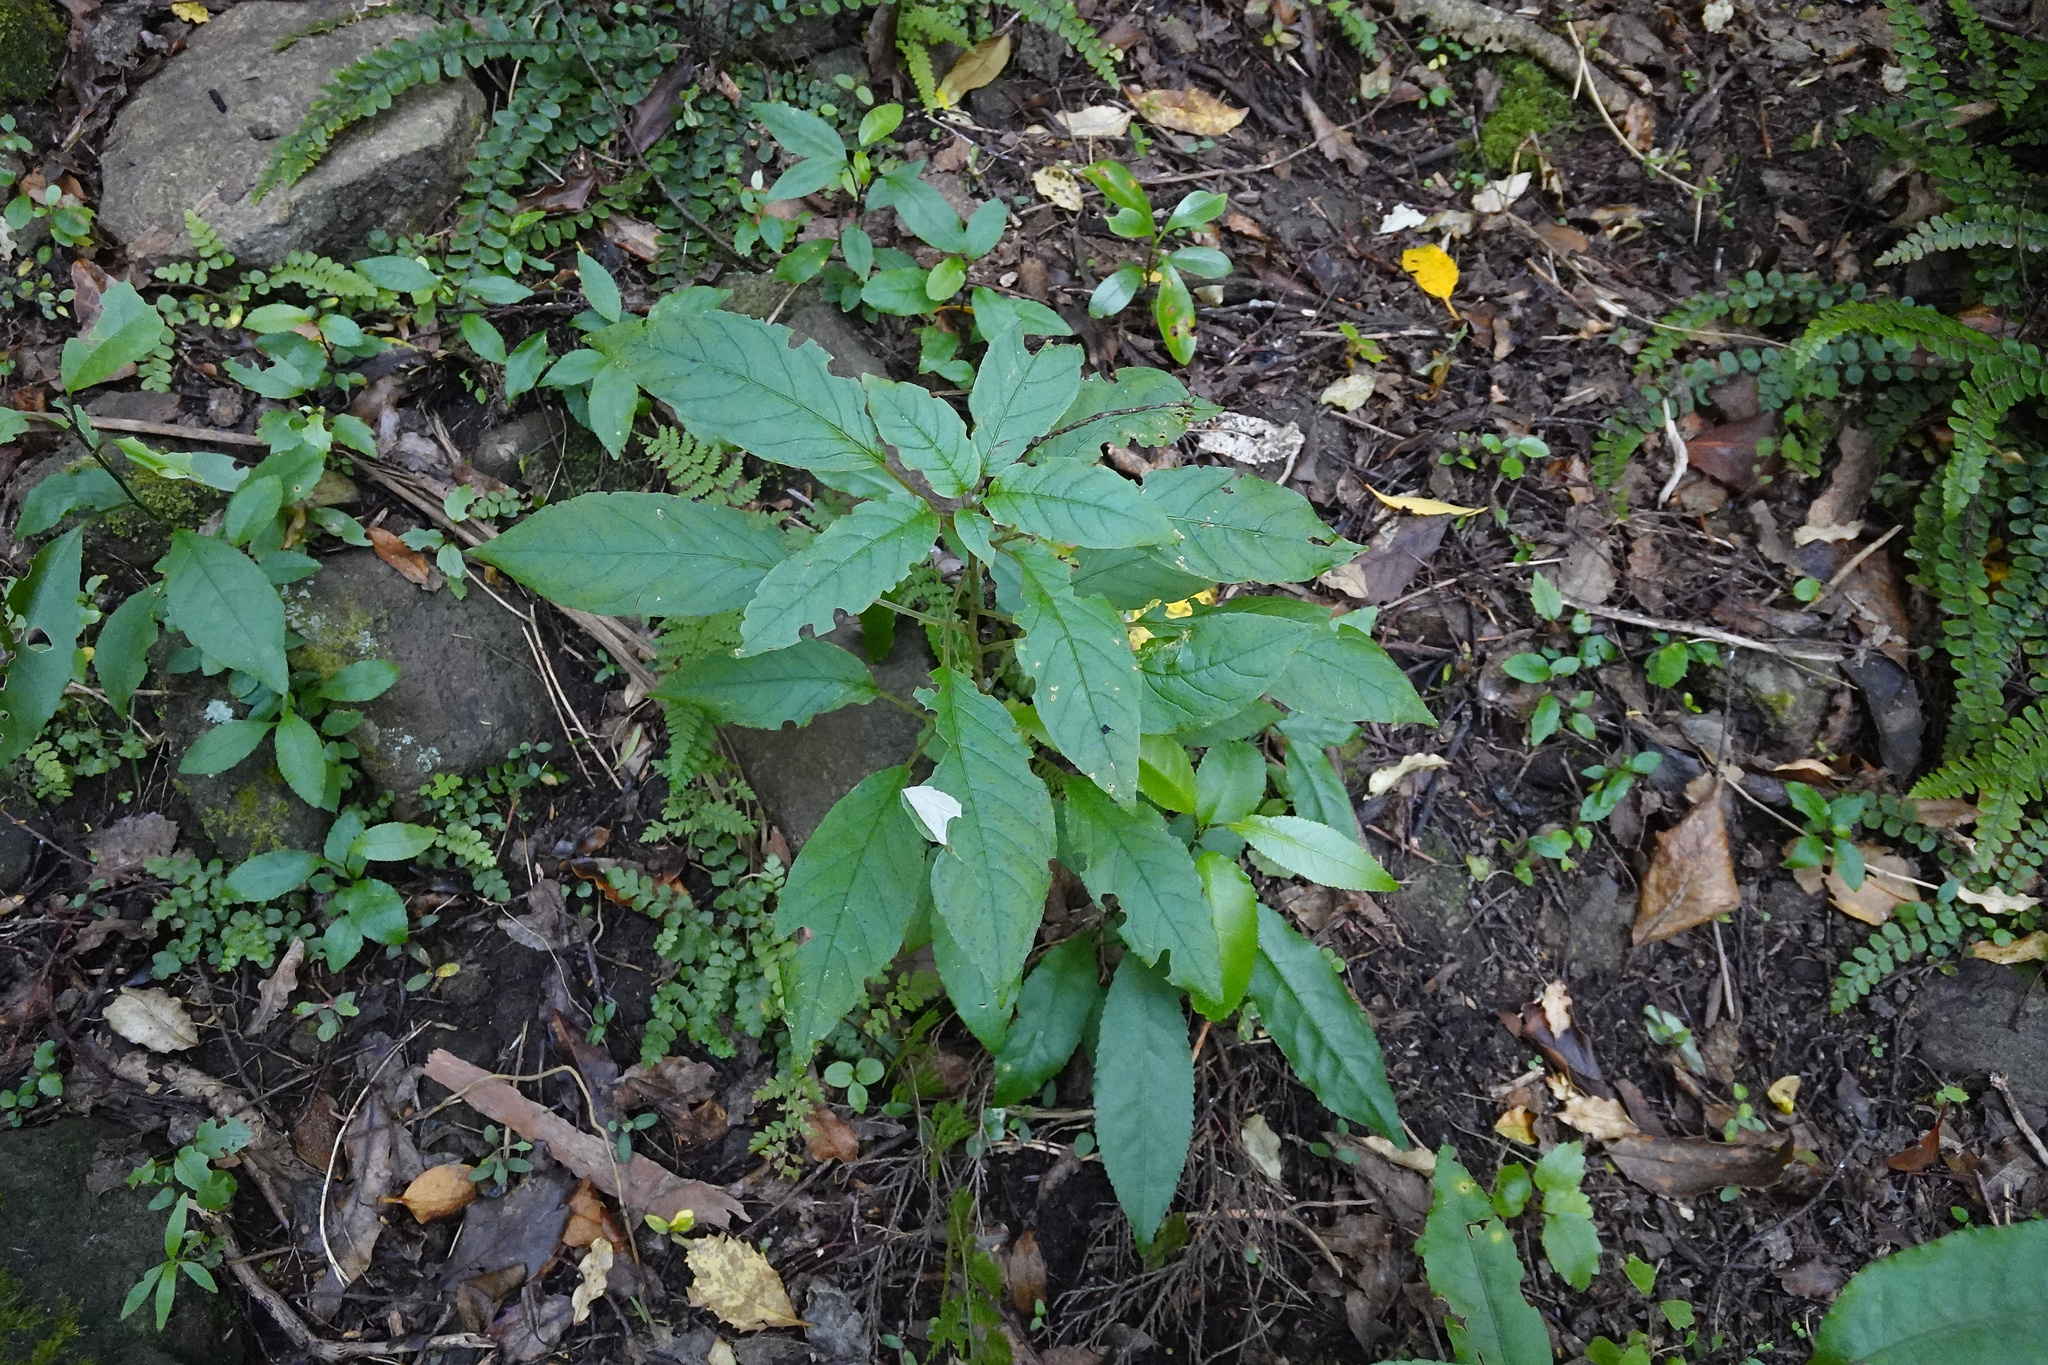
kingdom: Plantae
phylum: Tracheophyta
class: Magnoliopsida
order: Myrtales
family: Onagraceae
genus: Fuchsia
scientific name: Fuchsia excorticata
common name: Tree fuchsia
